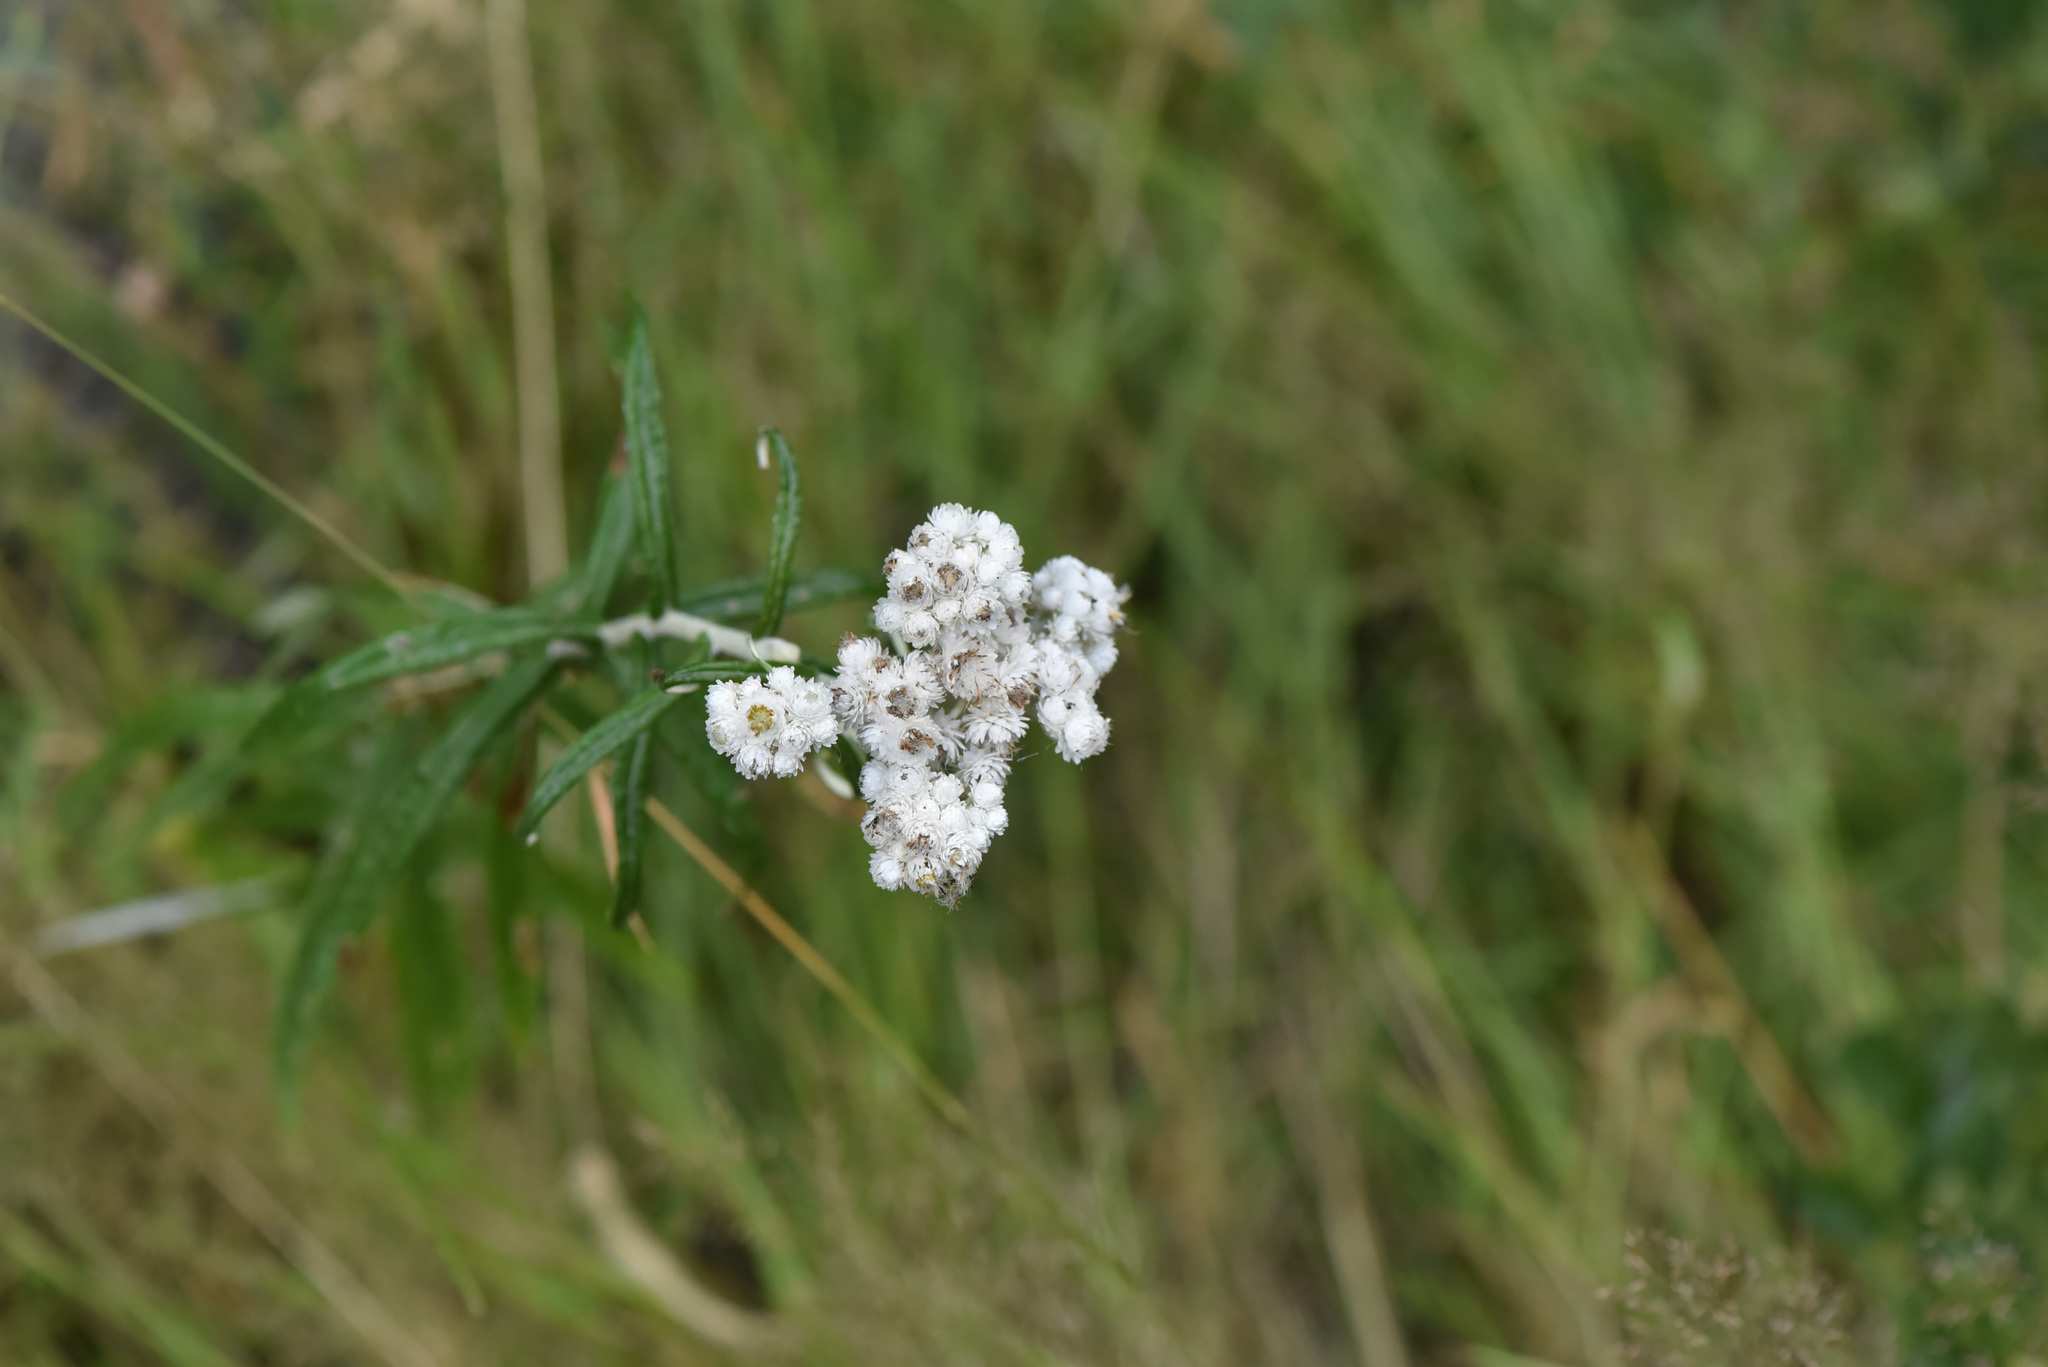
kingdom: Plantae
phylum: Tracheophyta
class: Magnoliopsida
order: Asterales
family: Asteraceae
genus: Anaphalis
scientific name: Anaphalis margaritacea
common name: Pearly everlasting
